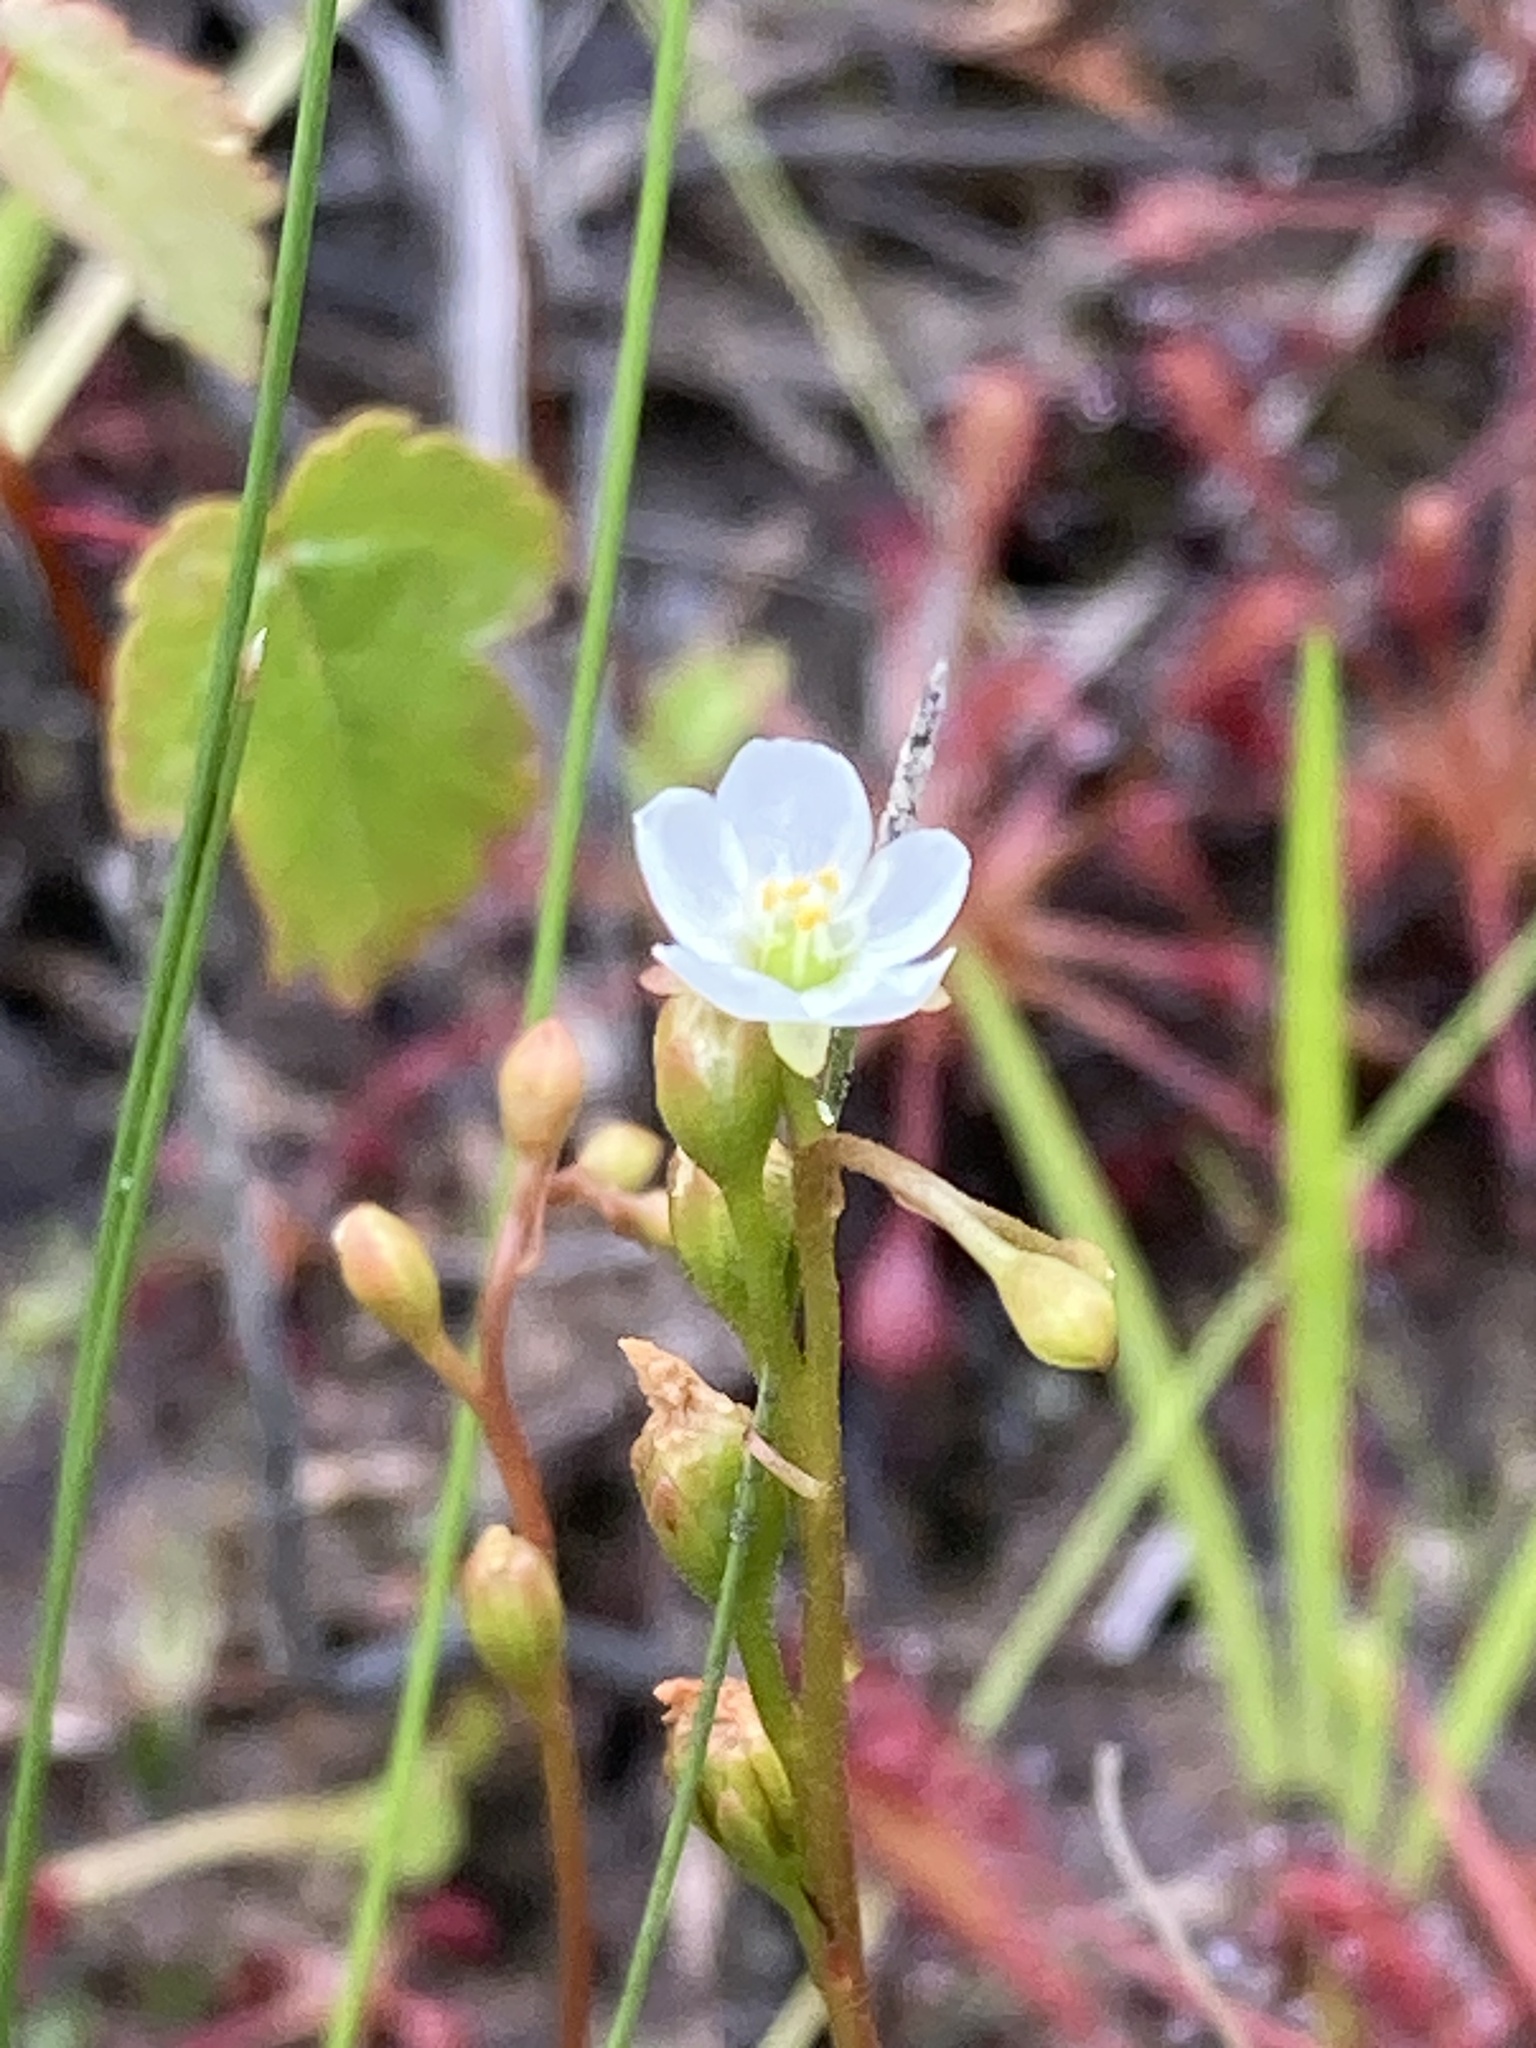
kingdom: Plantae
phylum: Tracheophyta
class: Magnoliopsida
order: Caryophyllales
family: Droseraceae
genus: Drosera
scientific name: Drosera intermedia
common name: Oblong-leaved sundew
